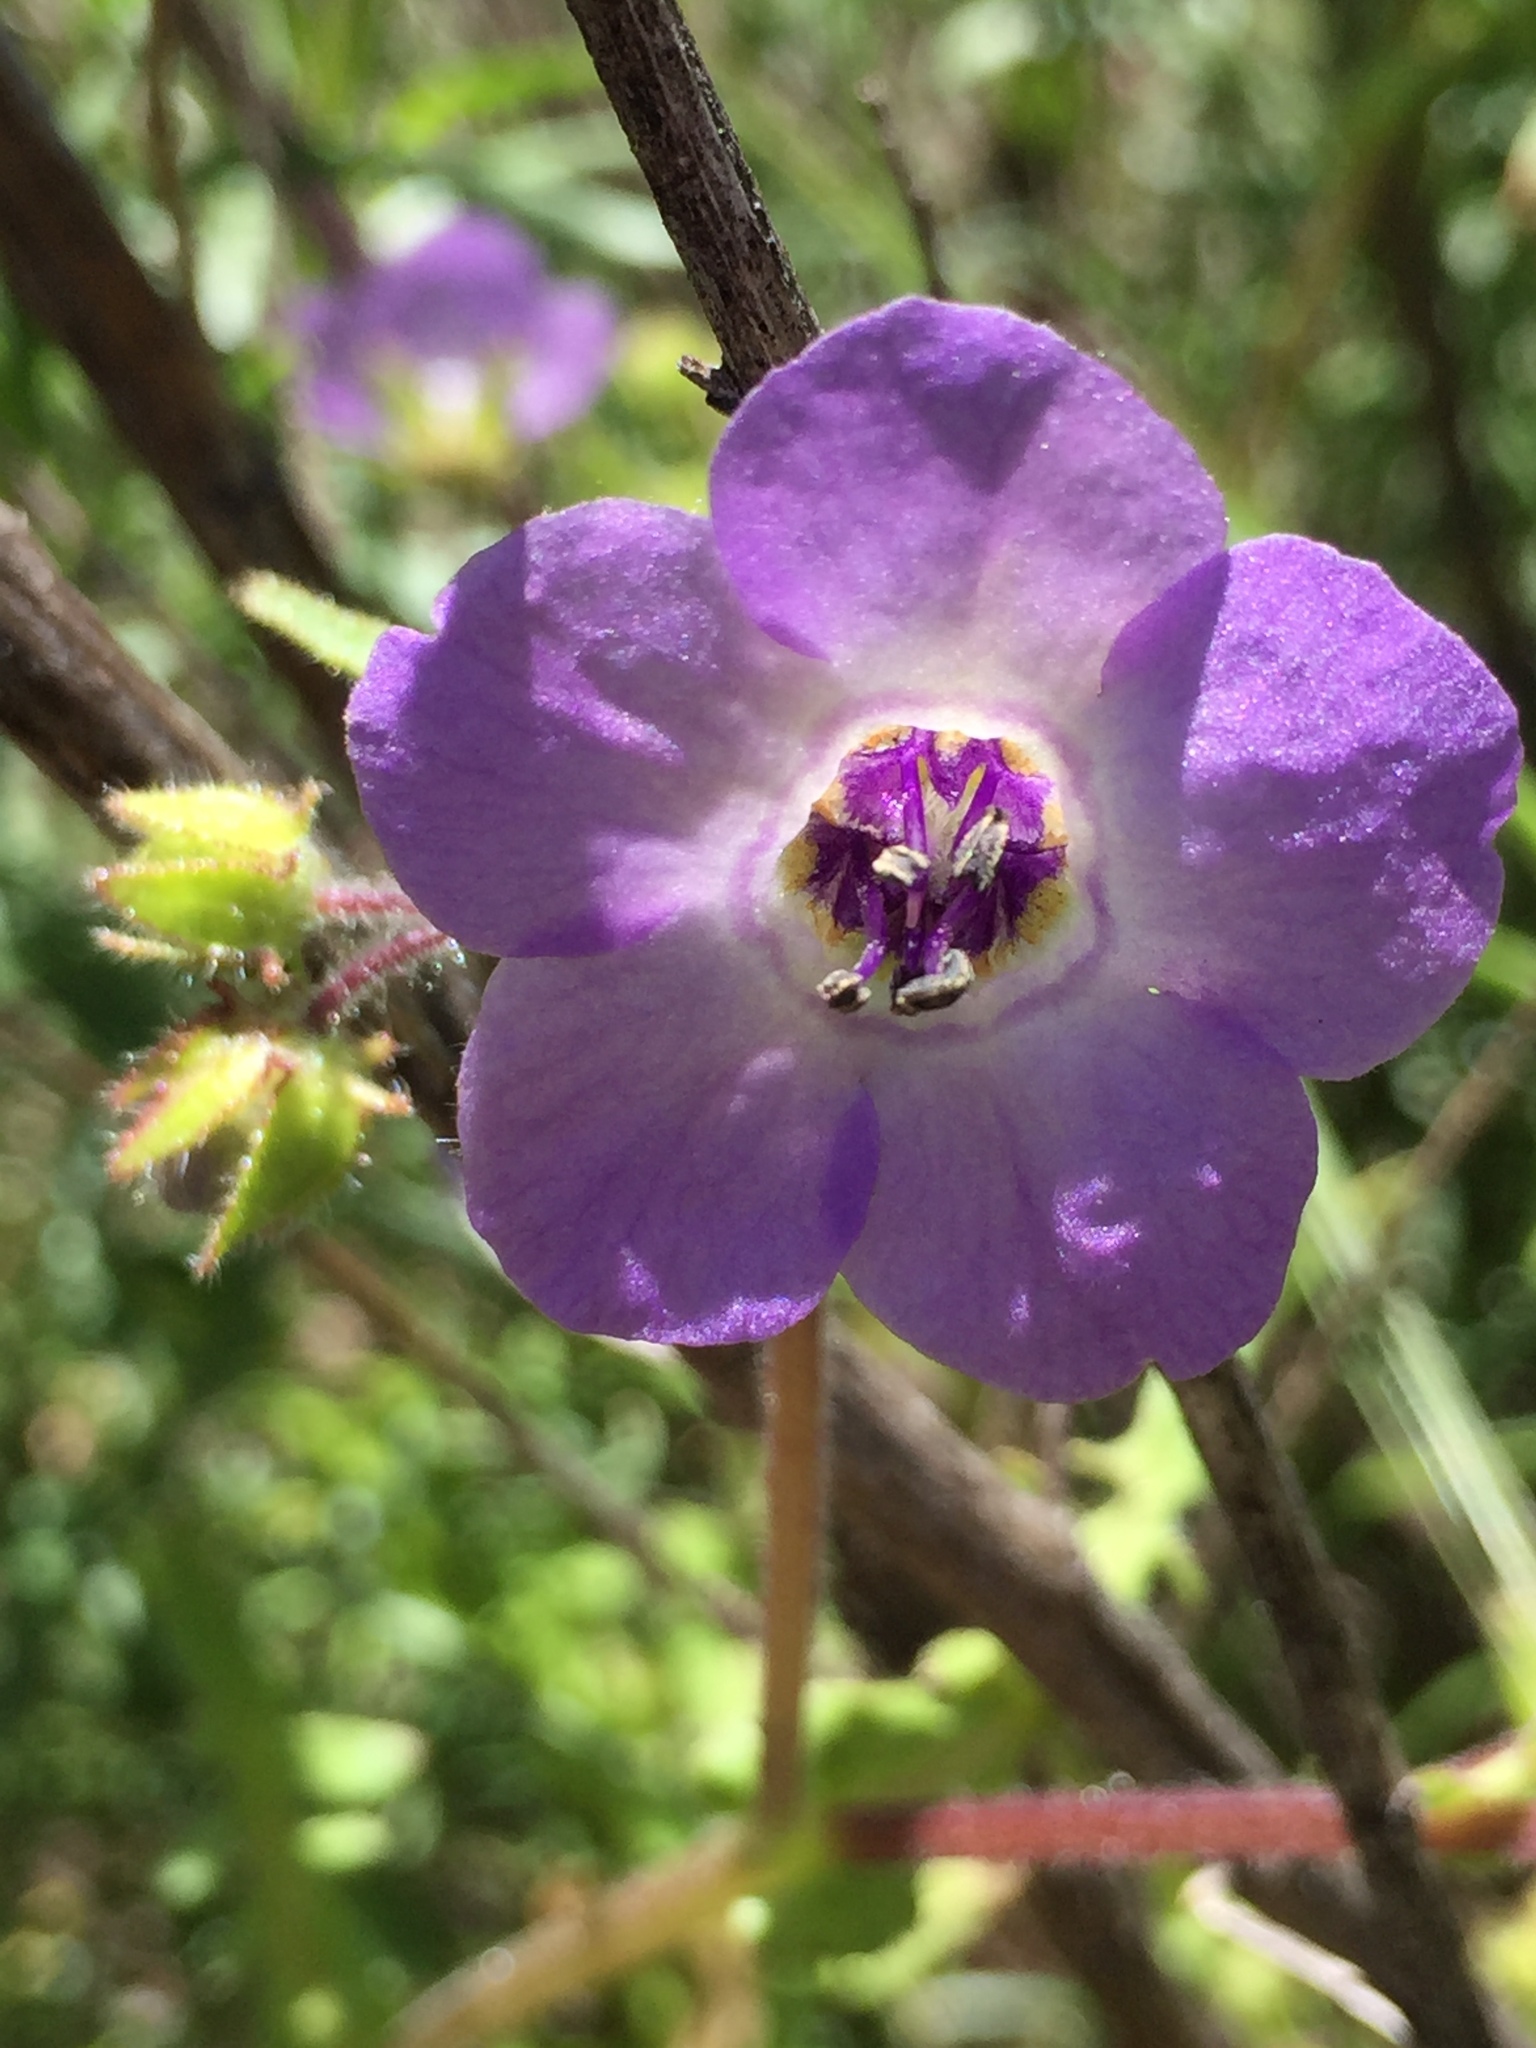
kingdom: Plantae
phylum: Tracheophyta
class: Magnoliopsida
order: Boraginales
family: Hydrophyllaceae
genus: Pholistoma
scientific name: Pholistoma auritum
